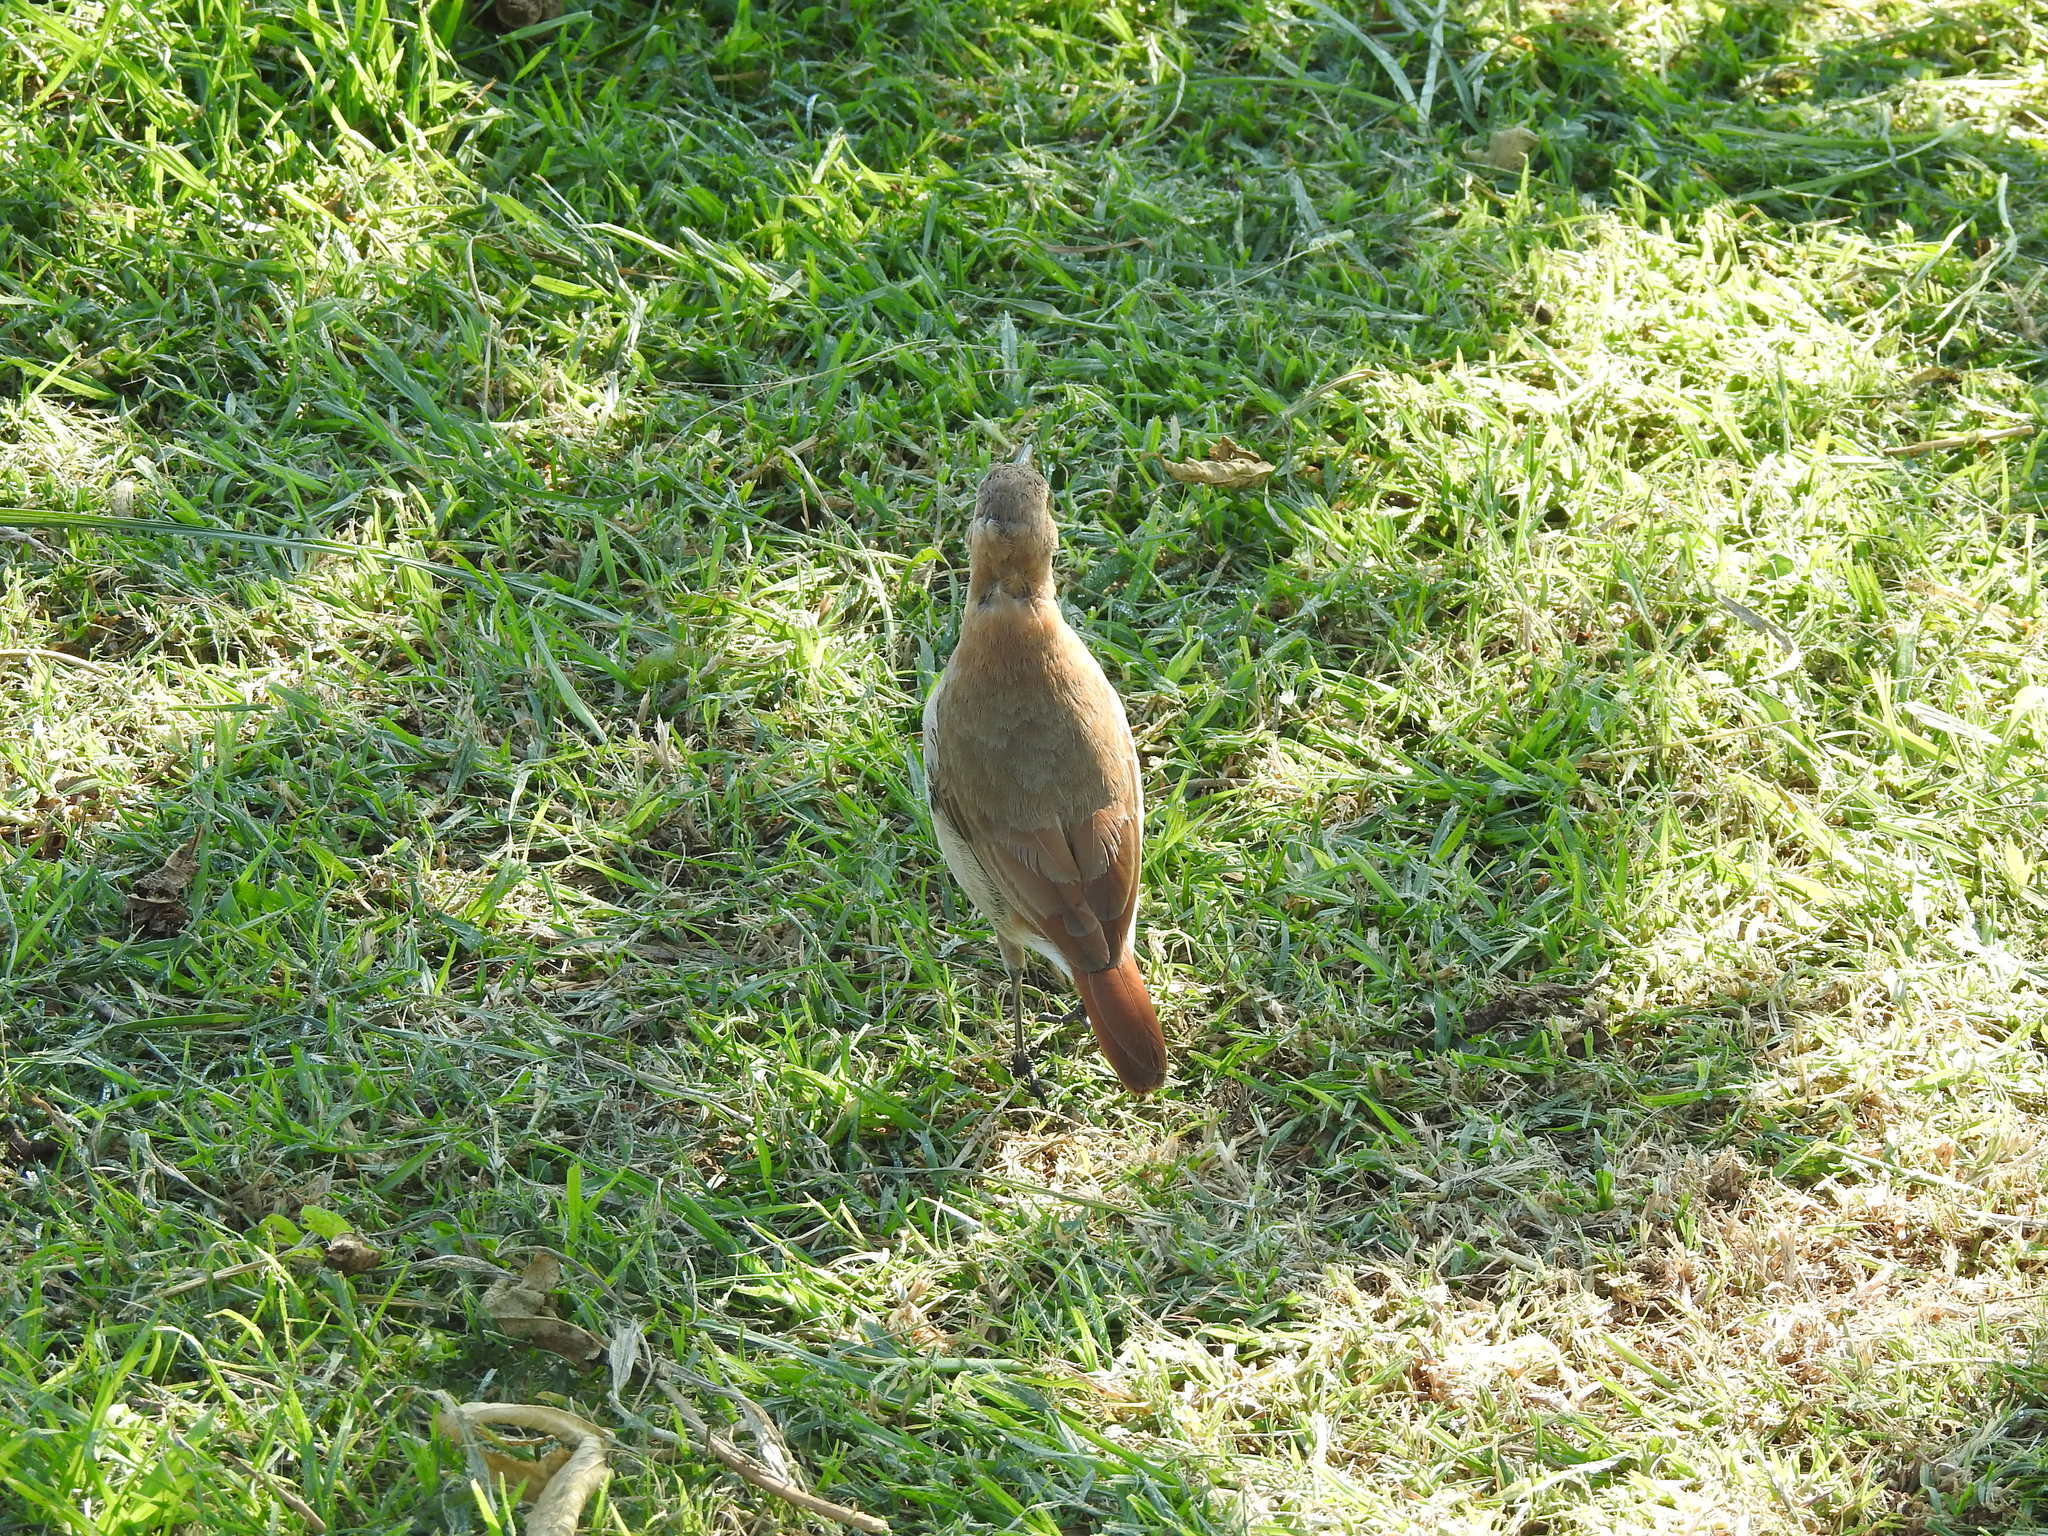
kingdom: Animalia
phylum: Chordata
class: Aves
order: Passeriformes
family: Furnariidae
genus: Furnarius
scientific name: Furnarius rufus
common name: Rufous hornero
